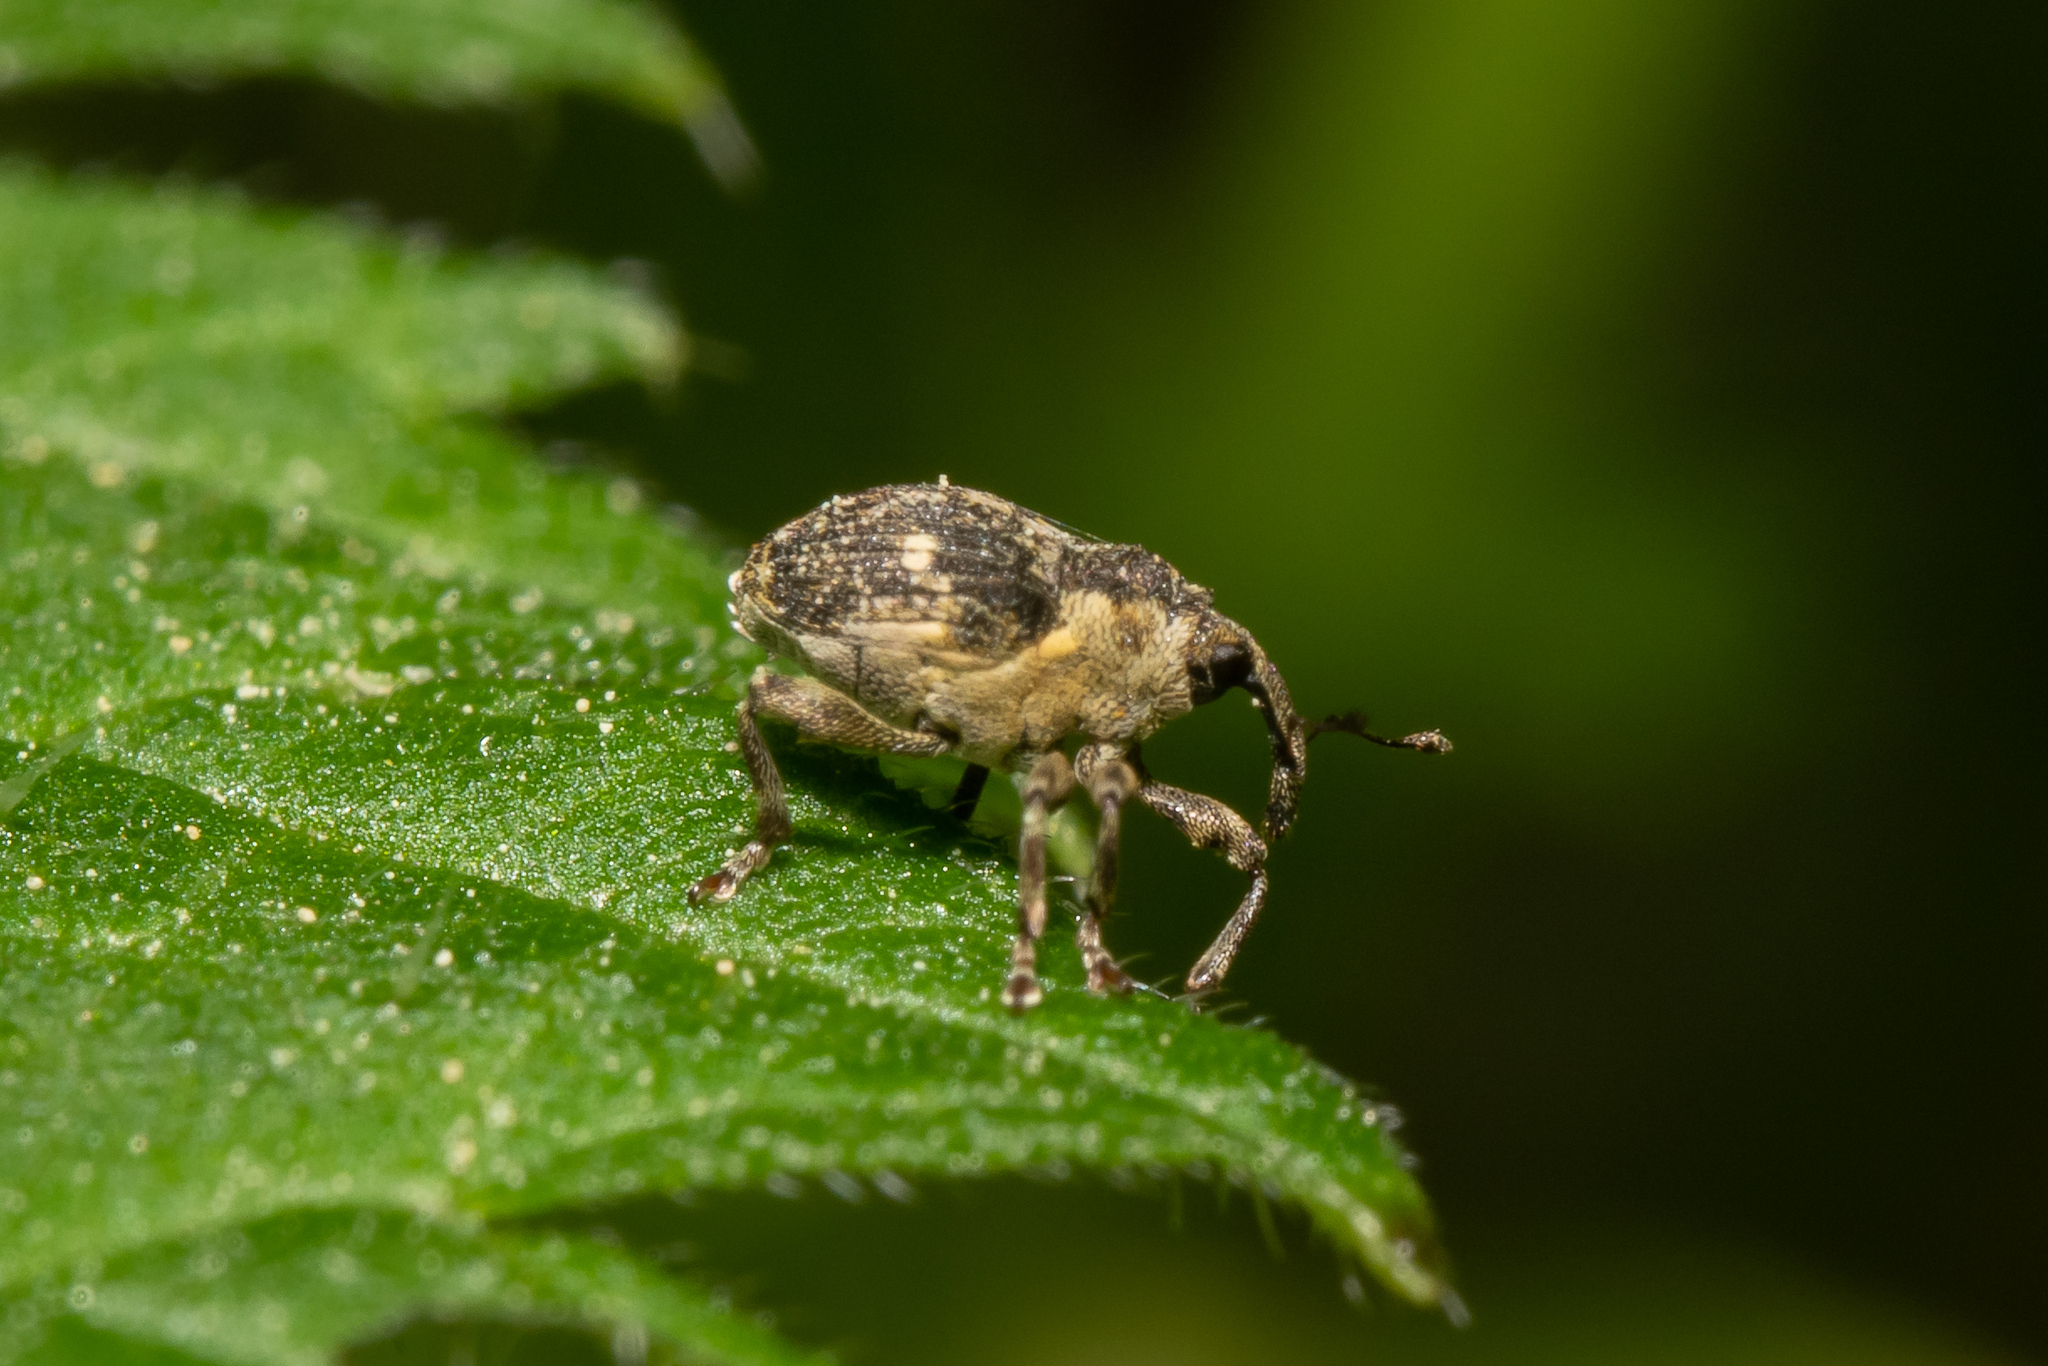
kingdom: Animalia
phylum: Arthropoda
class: Insecta
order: Coleoptera
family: Curculionidae
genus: Nedyus
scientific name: Nedyus quadrimaculatus
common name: Small nettle weevil
